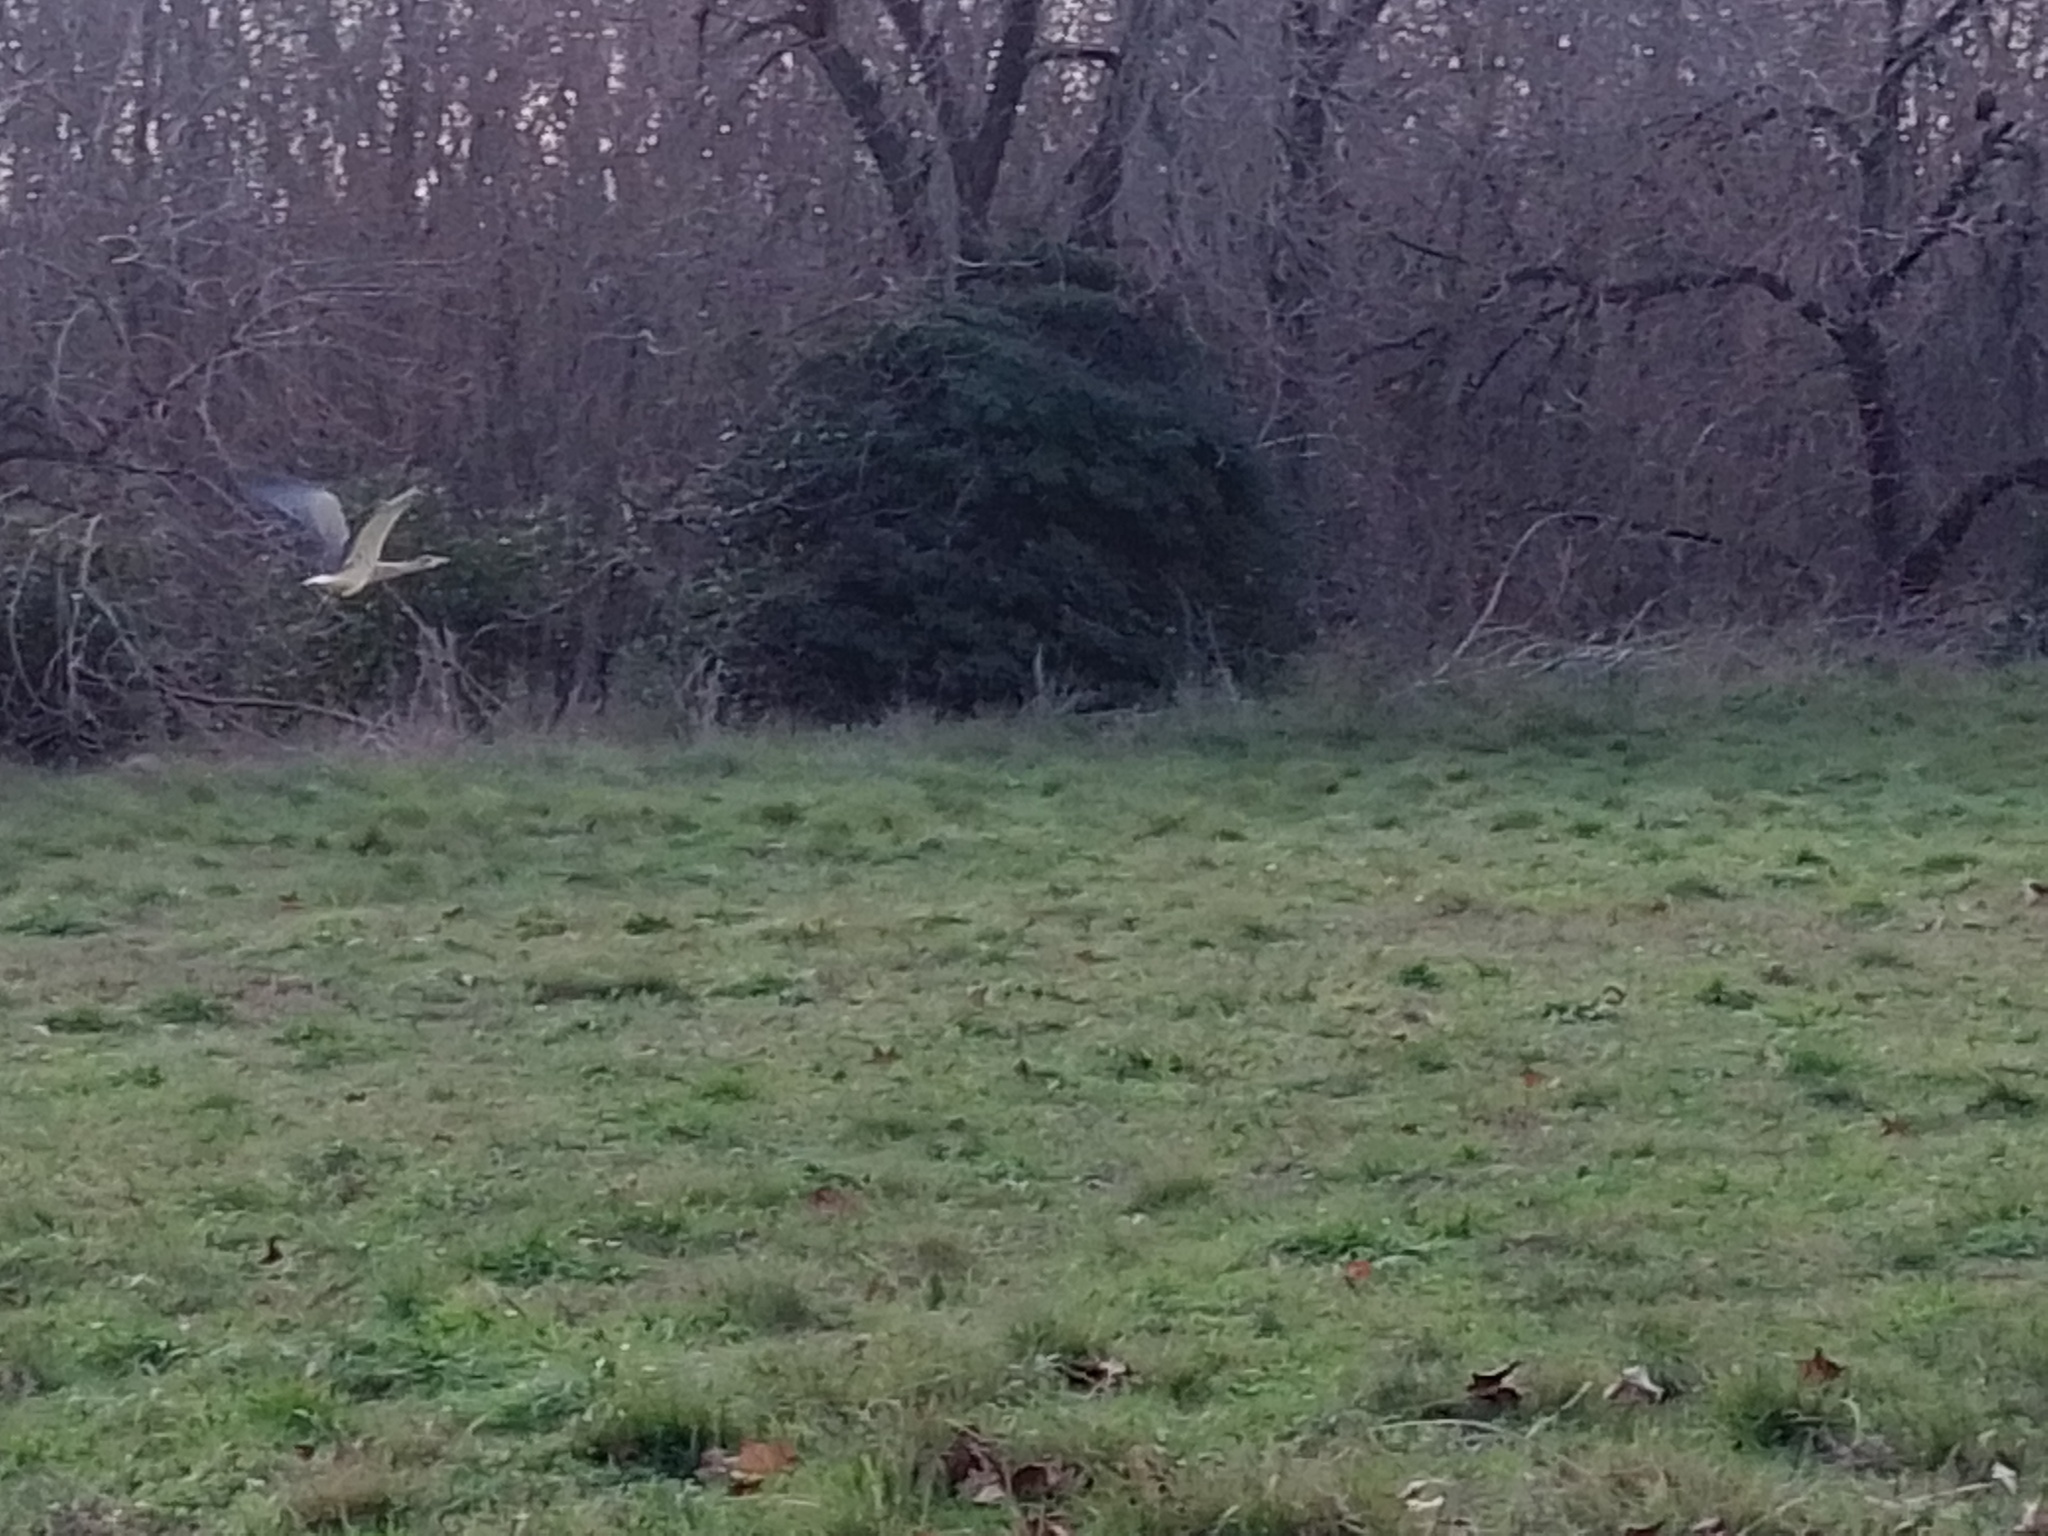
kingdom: Animalia
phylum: Chordata
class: Aves
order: Pelecaniformes
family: Ardeidae
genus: Syrigma
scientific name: Syrigma sibilatrix
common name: Whistling heron
